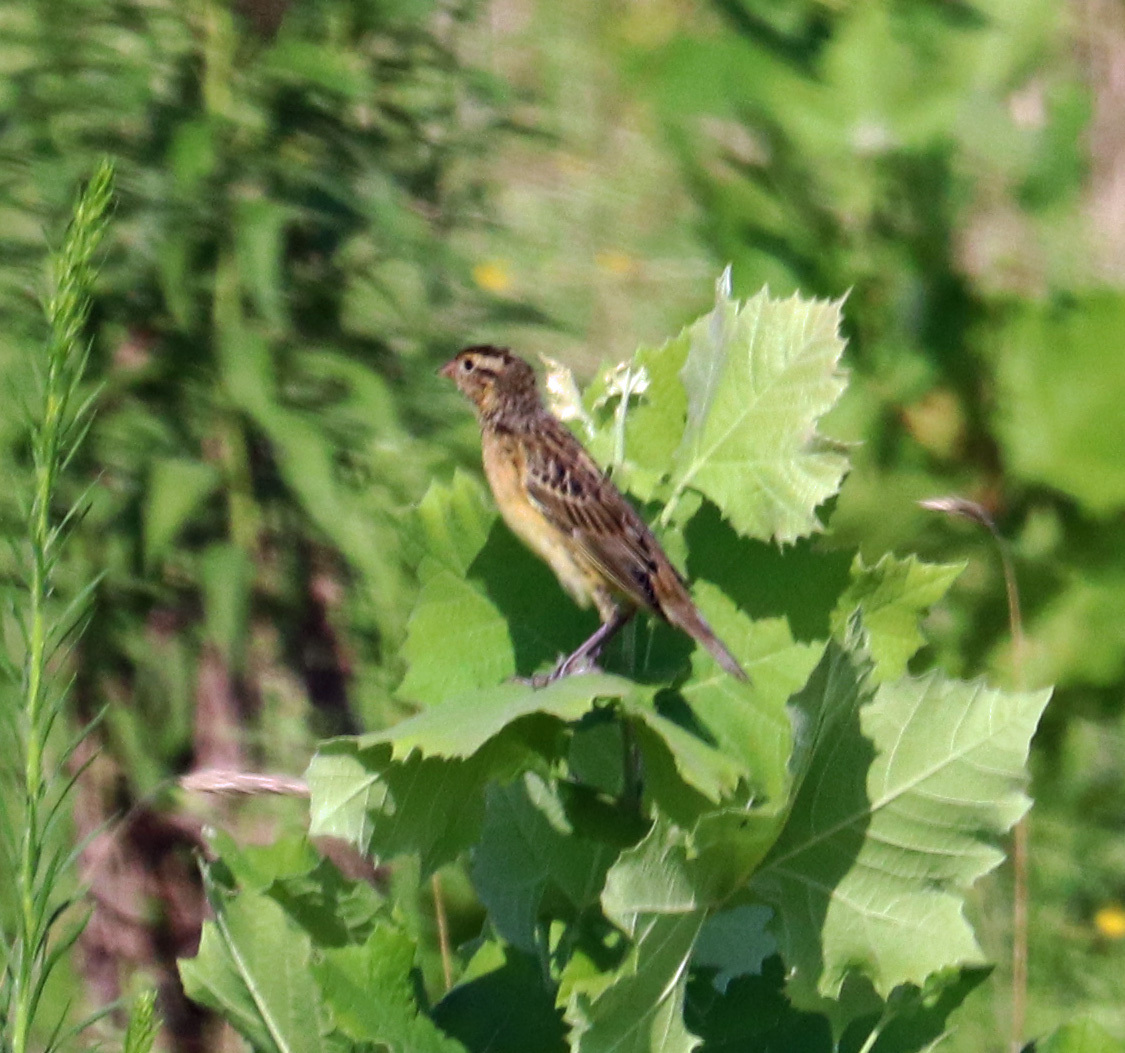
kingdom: Animalia
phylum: Chordata
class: Aves
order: Passeriformes
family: Icteridae
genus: Dolichonyx
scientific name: Dolichonyx oryzivorus
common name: Bobolink
